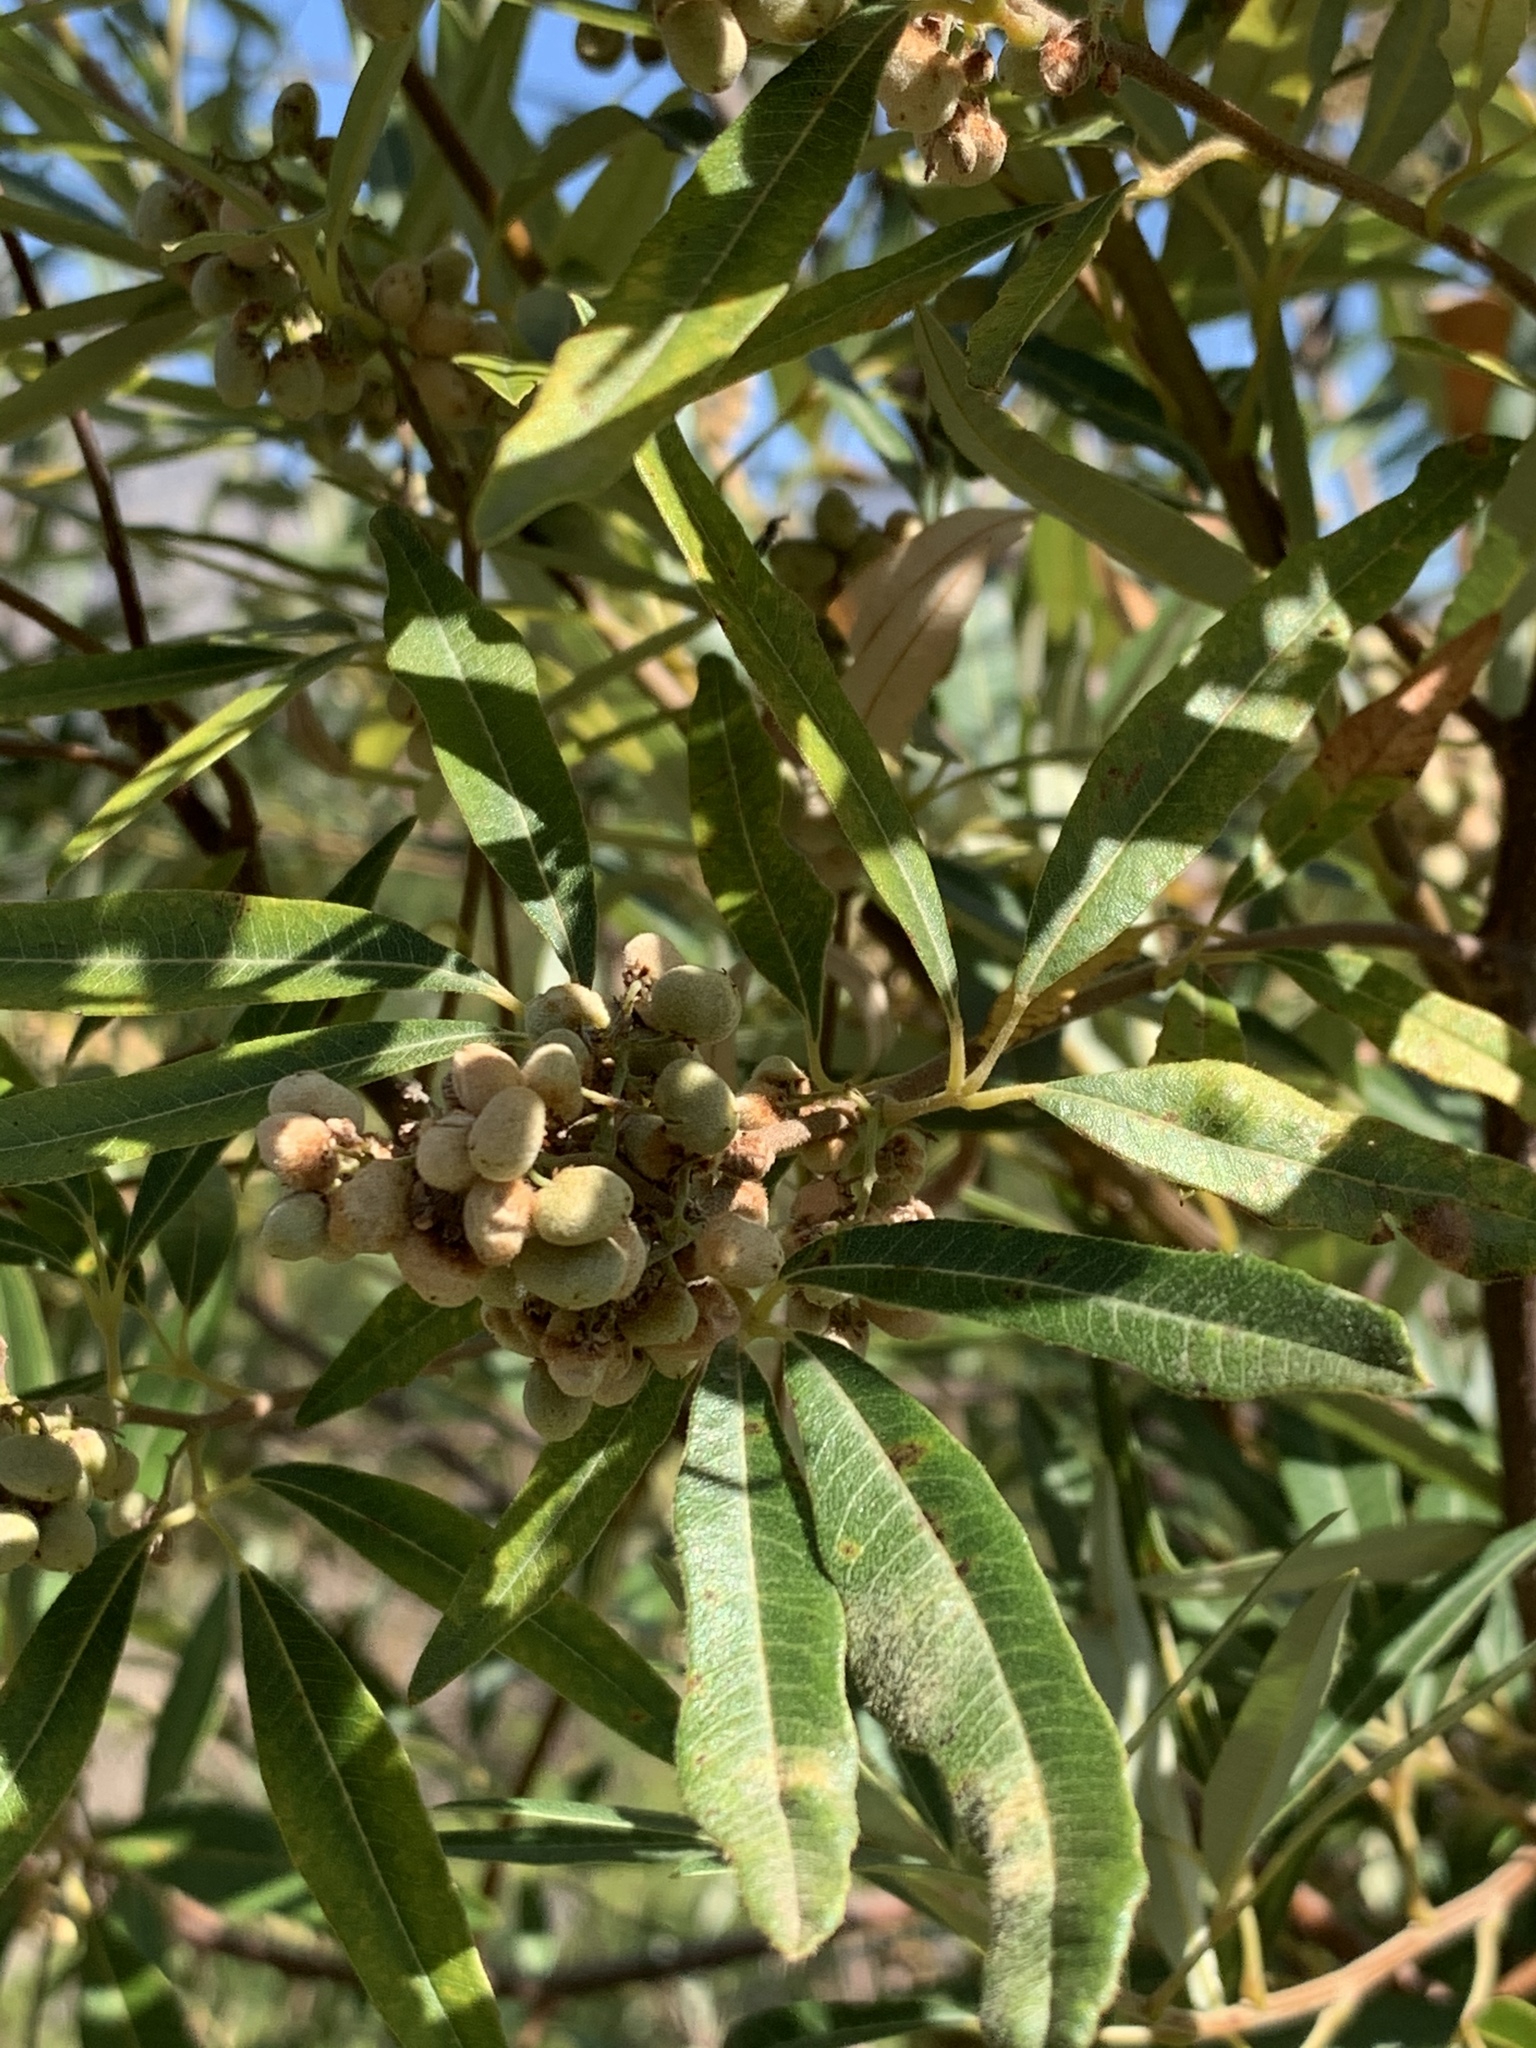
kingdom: Plantae
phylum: Tracheophyta
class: Magnoliopsida
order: Sapindales
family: Anacardiaceae
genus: Searsia
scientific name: Searsia angustifolia
